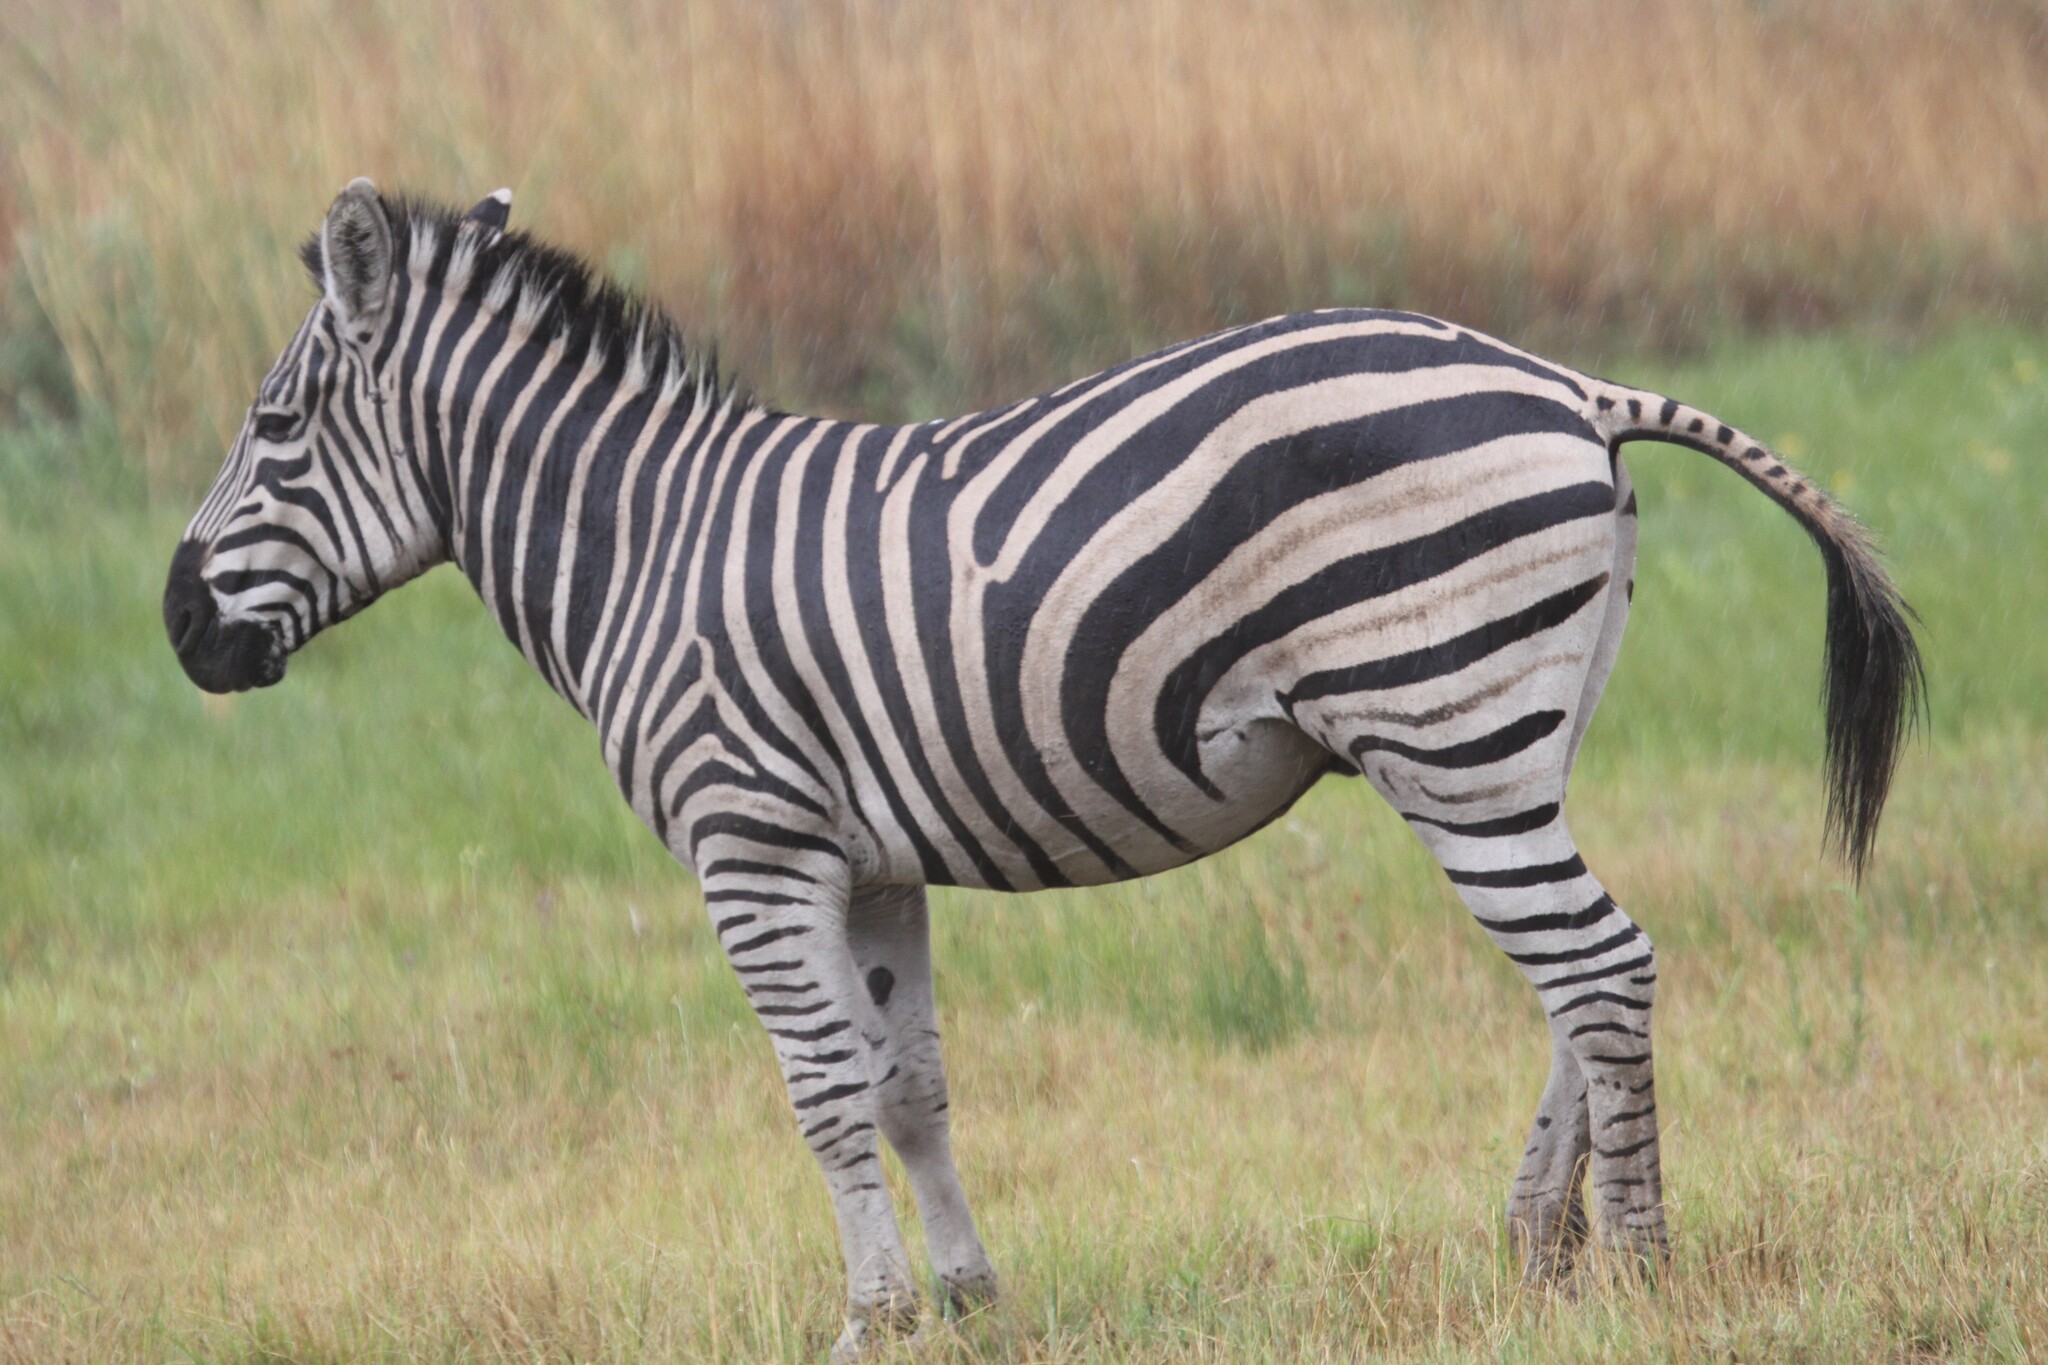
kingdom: Animalia
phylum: Chordata
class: Mammalia
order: Perissodactyla
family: Equidae
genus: Equus
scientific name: Equus quagga
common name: Plains zebra
